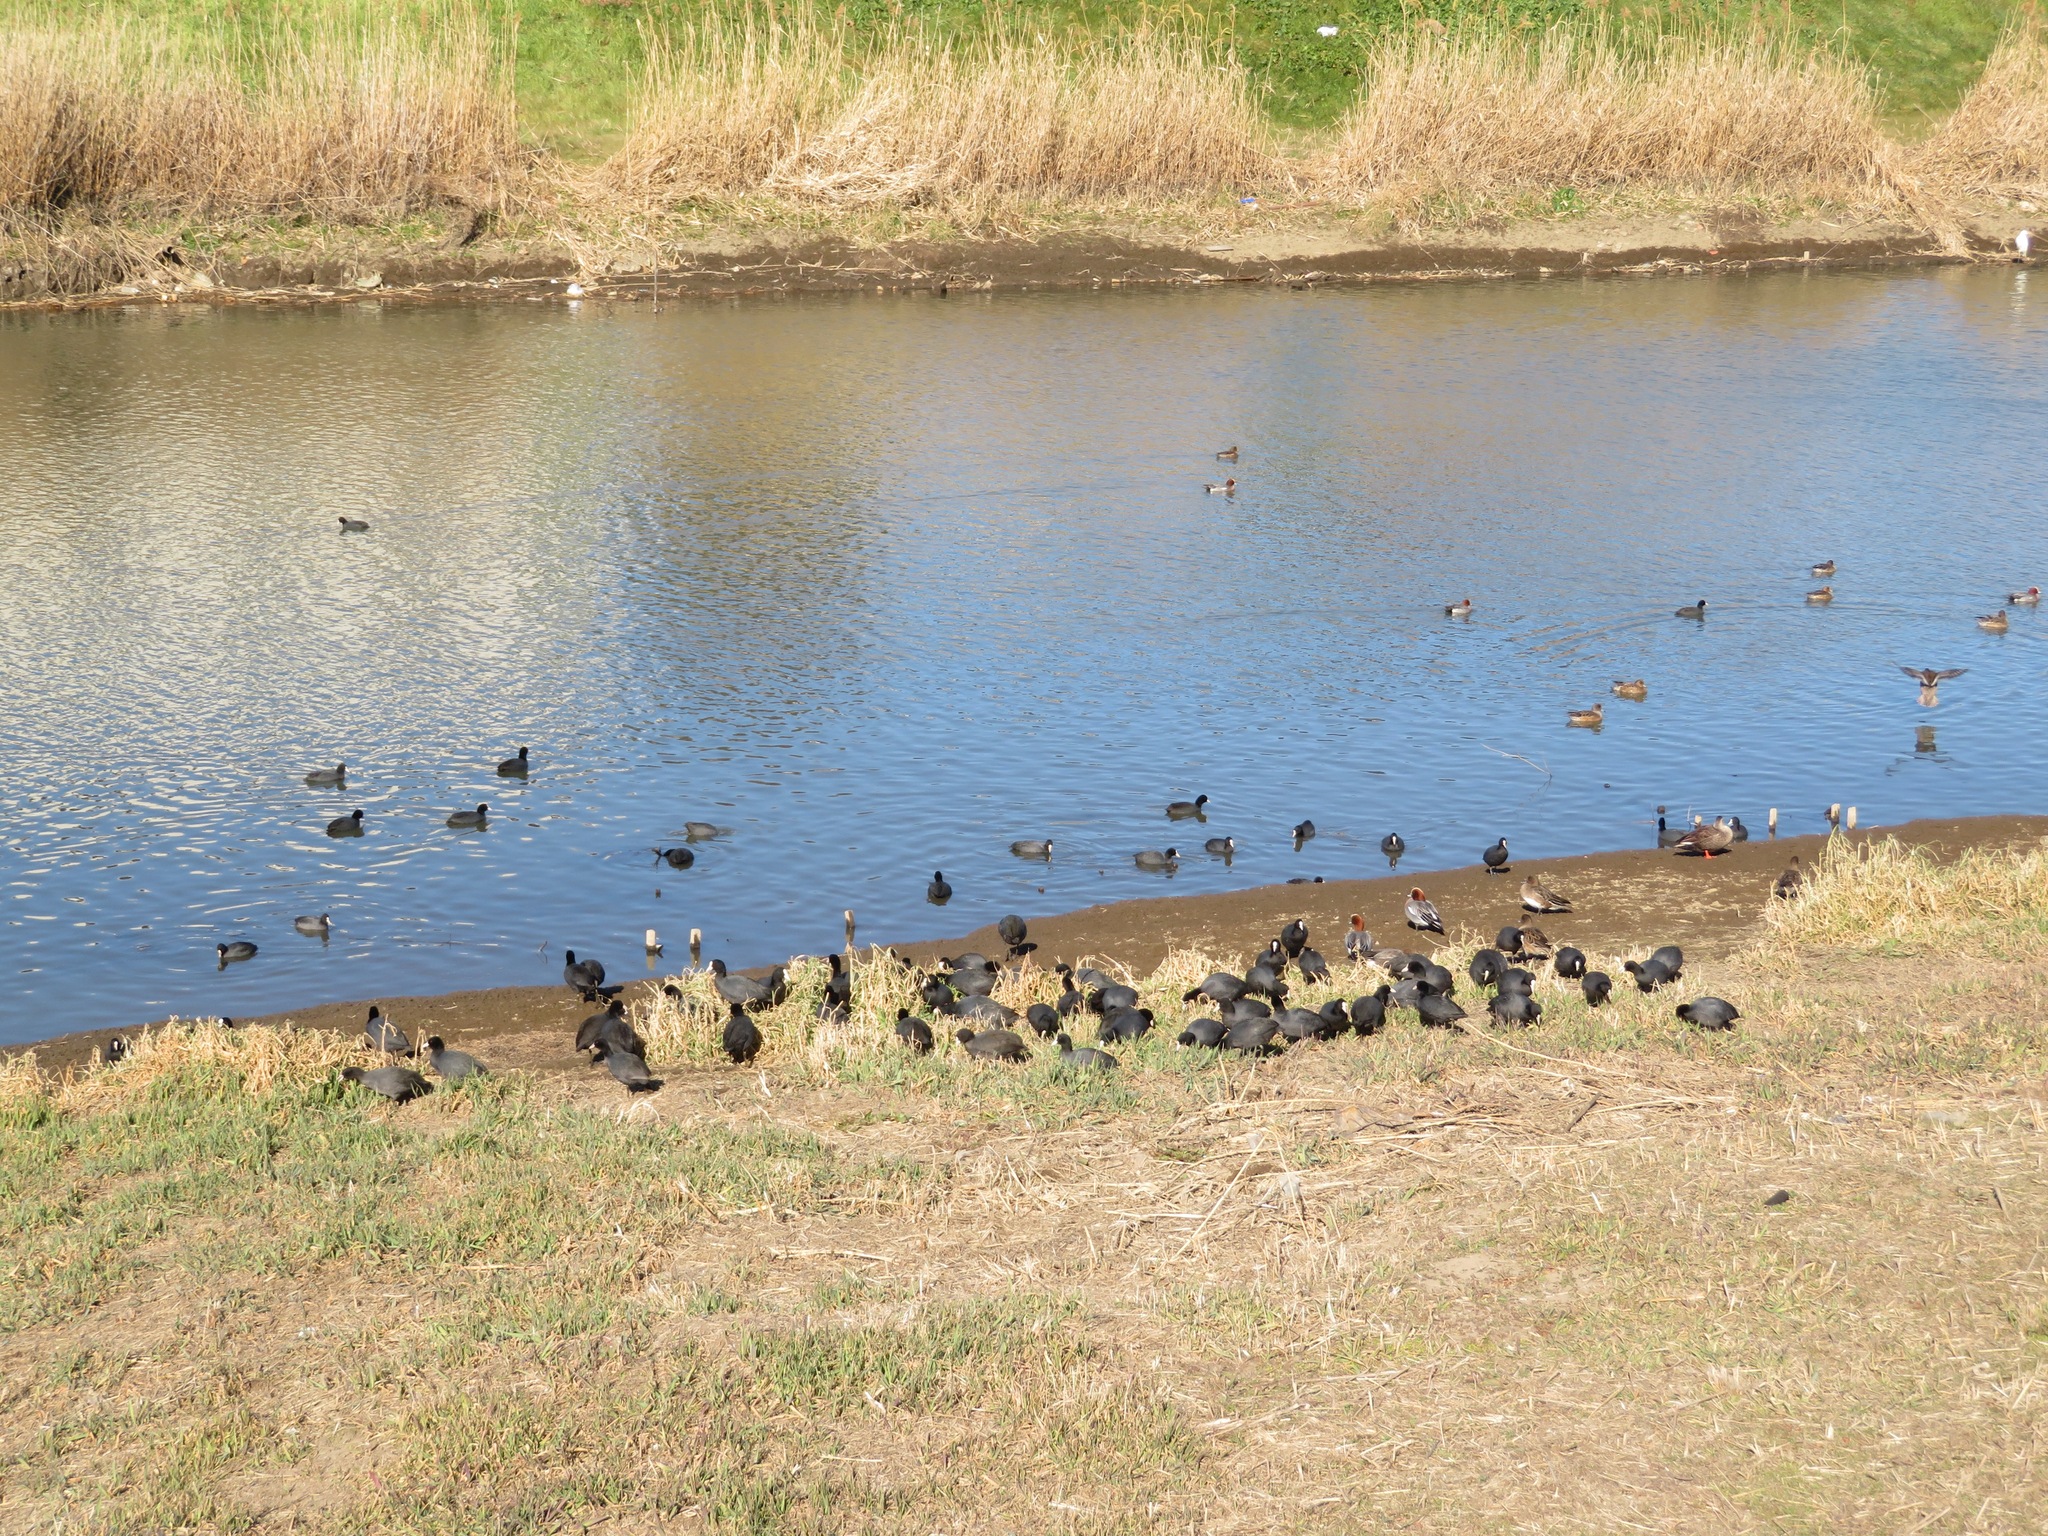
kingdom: Animalia
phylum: Chordata
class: Aves
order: Gruiformes
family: Rallidae
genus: Fulica
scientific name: Fulica atra
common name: Eurasian coot
